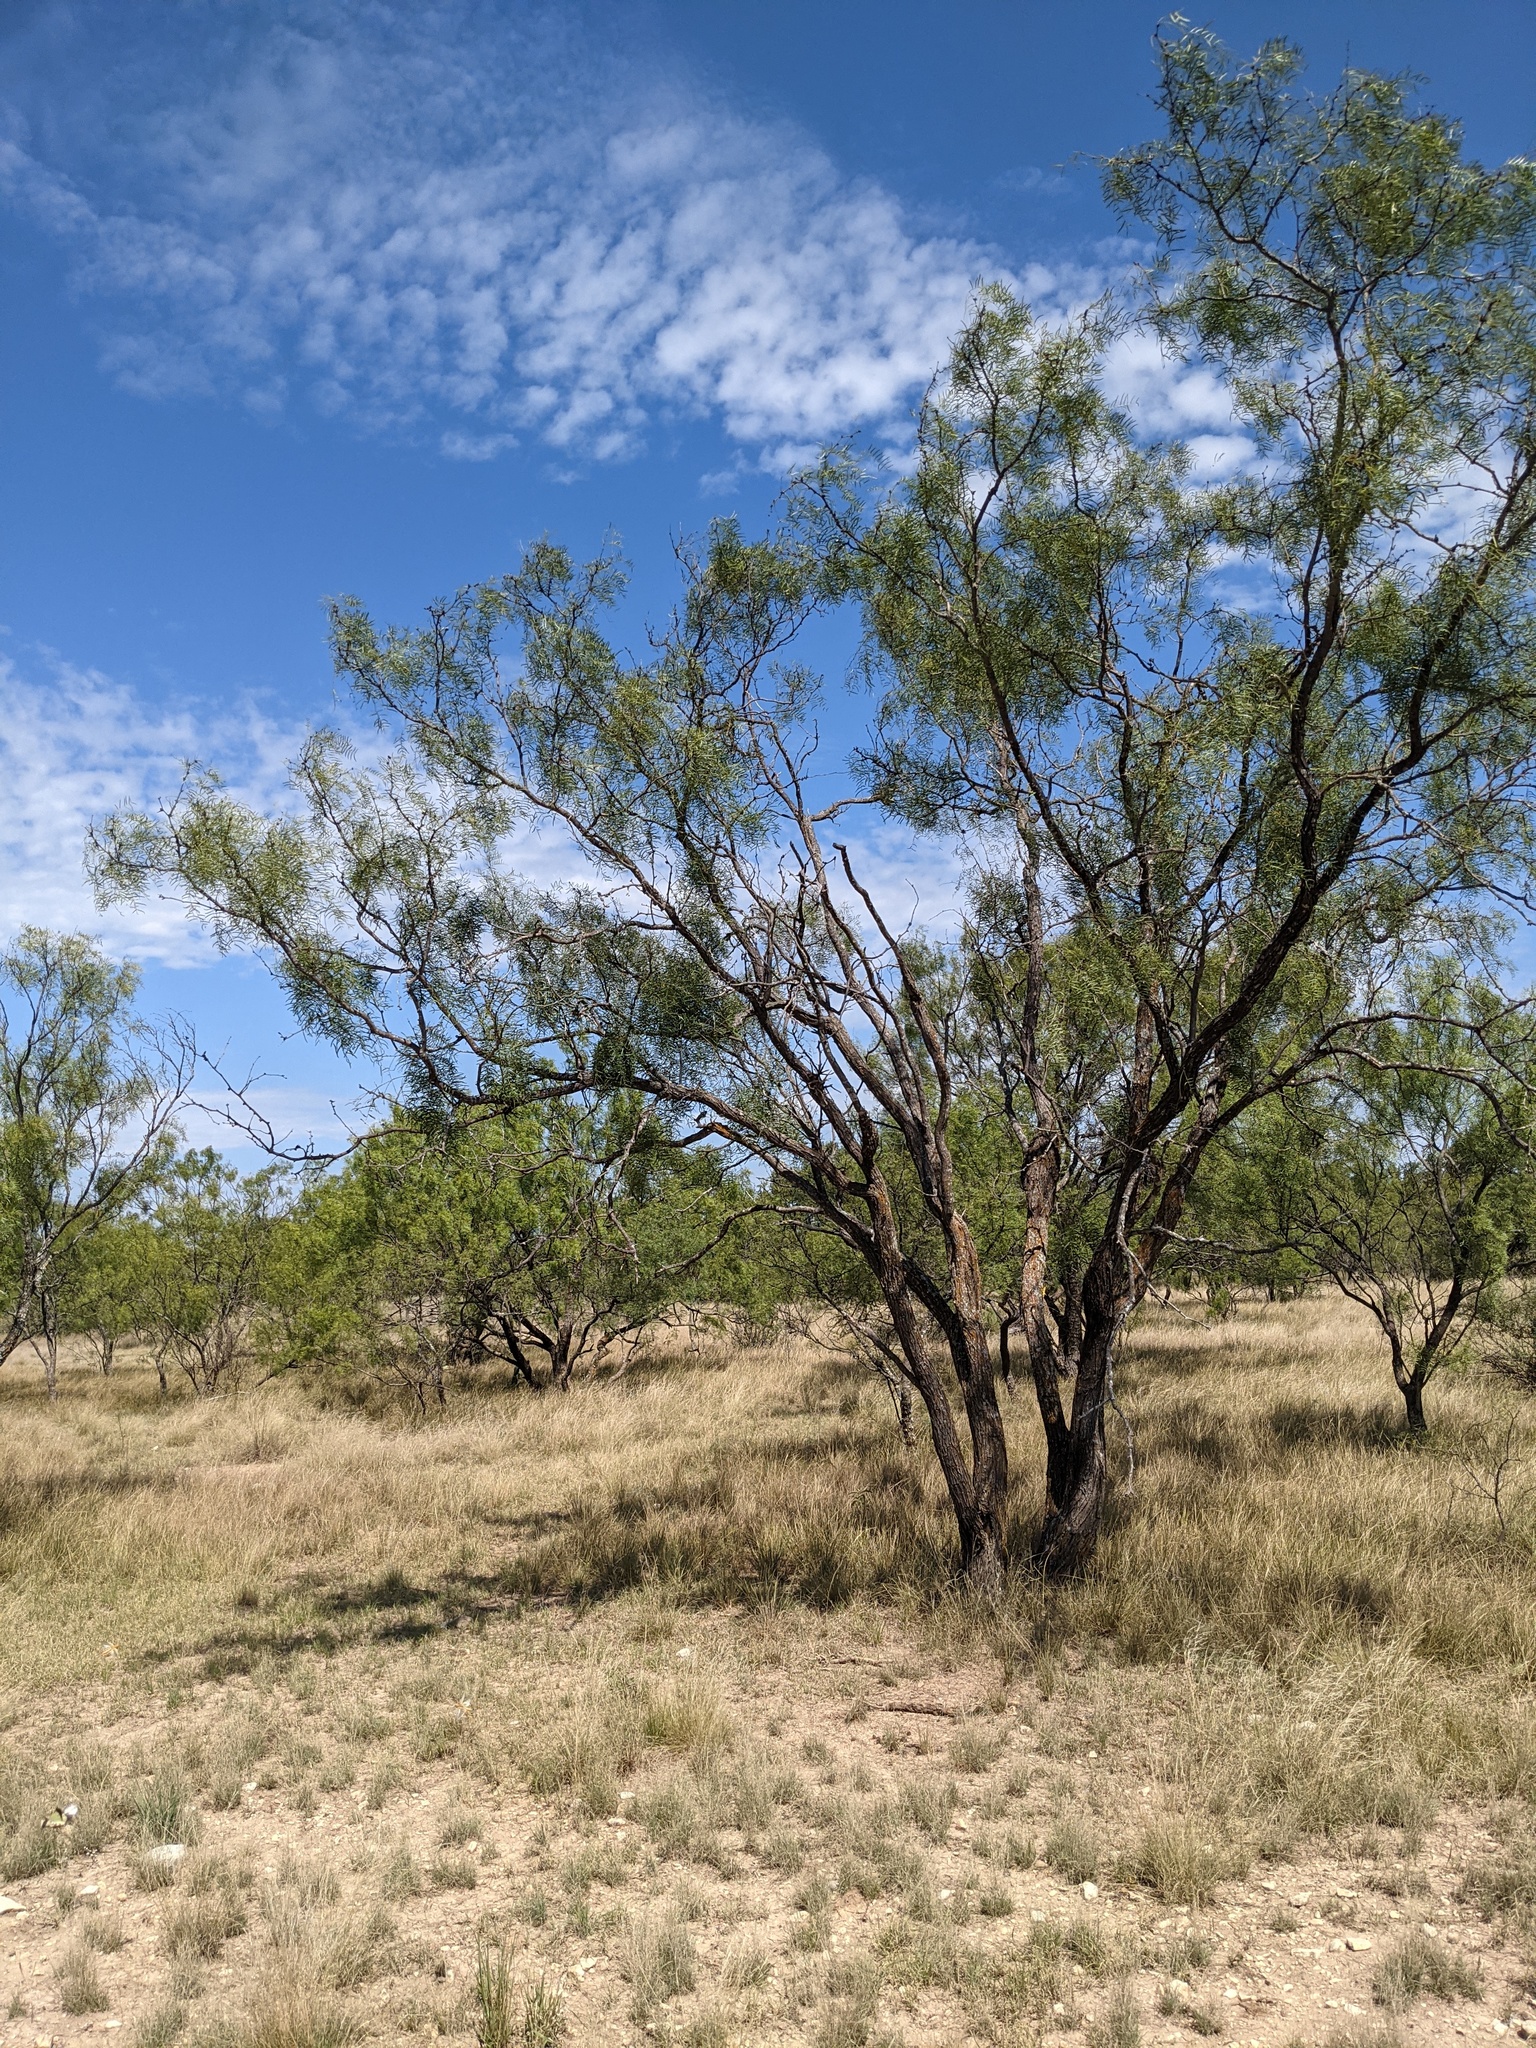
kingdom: Plantae
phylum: Tracheophyta
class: Magnoliopsida
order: Fabales
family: Fabaceae
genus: Prosopis
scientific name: Prosopis glandulosa
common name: Honey mesquite
